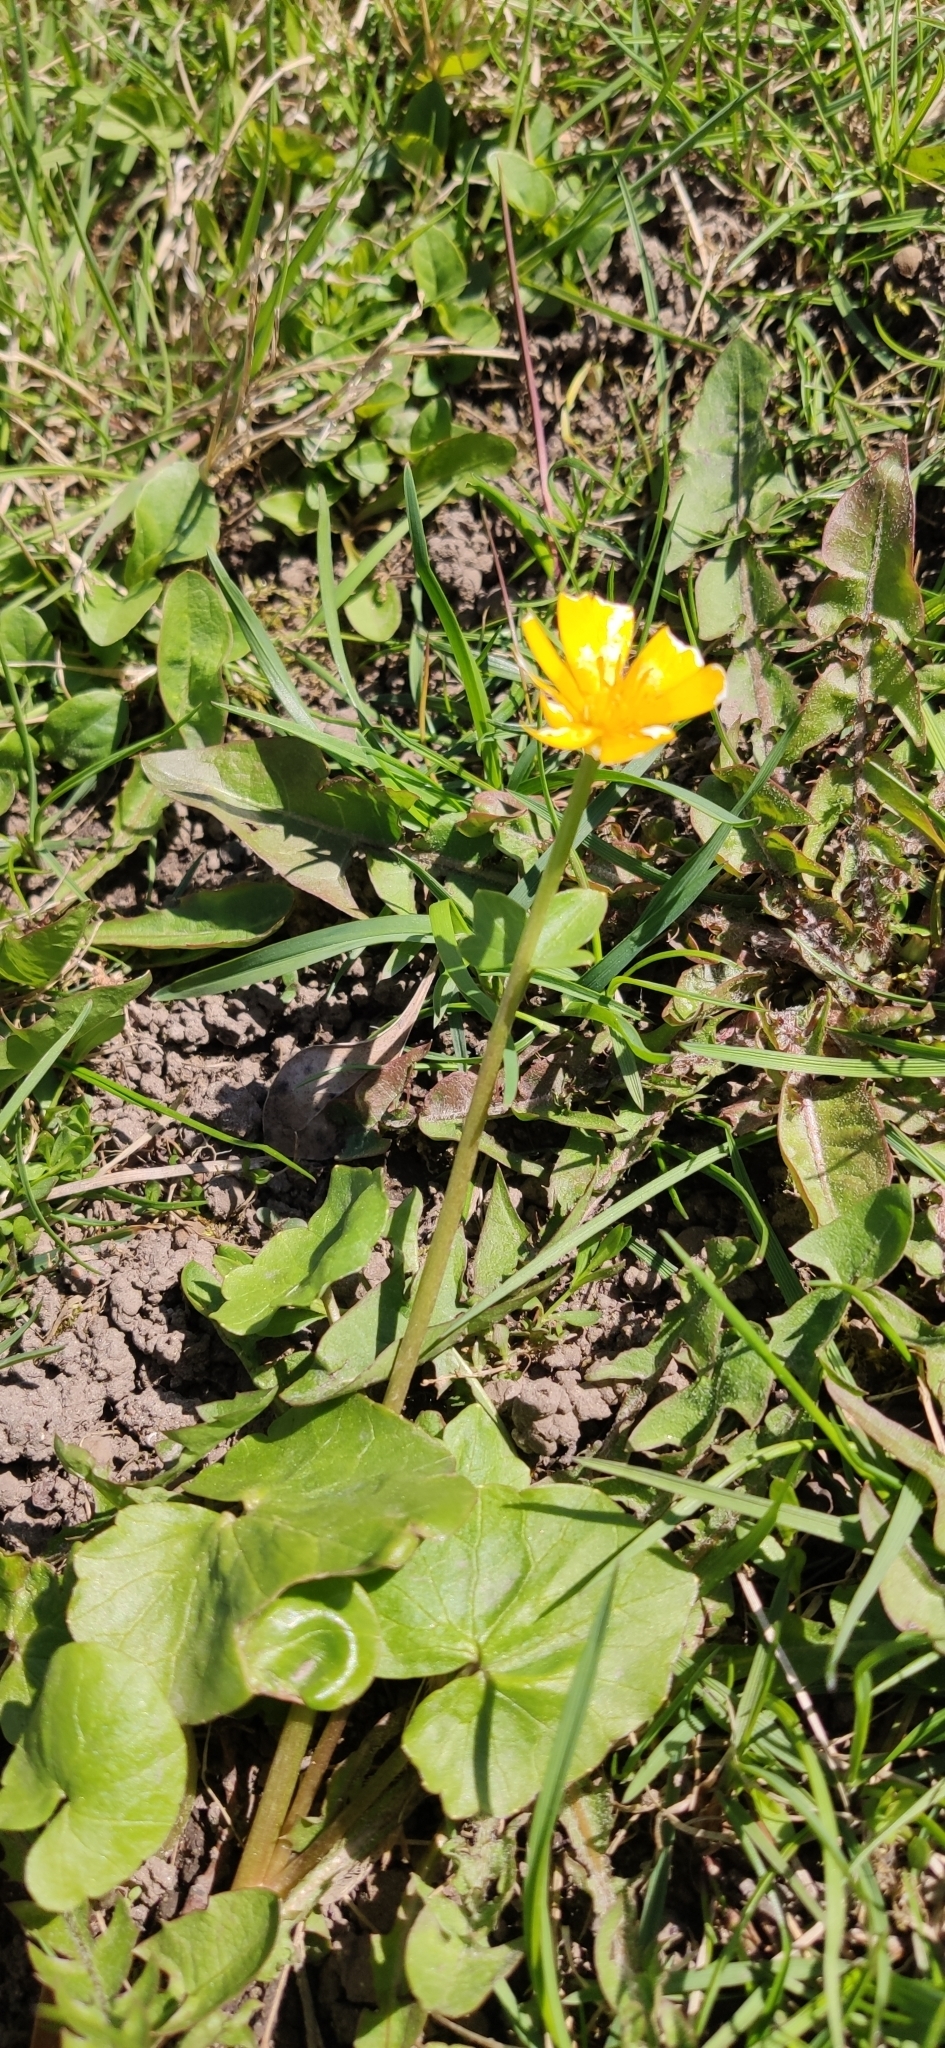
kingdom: Plantae
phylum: Tracheophyta
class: Magnoliopsida
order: Ranunculales
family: Ranunculaceae
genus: Ficaria
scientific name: Ficaria verna
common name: Lesser celandine
